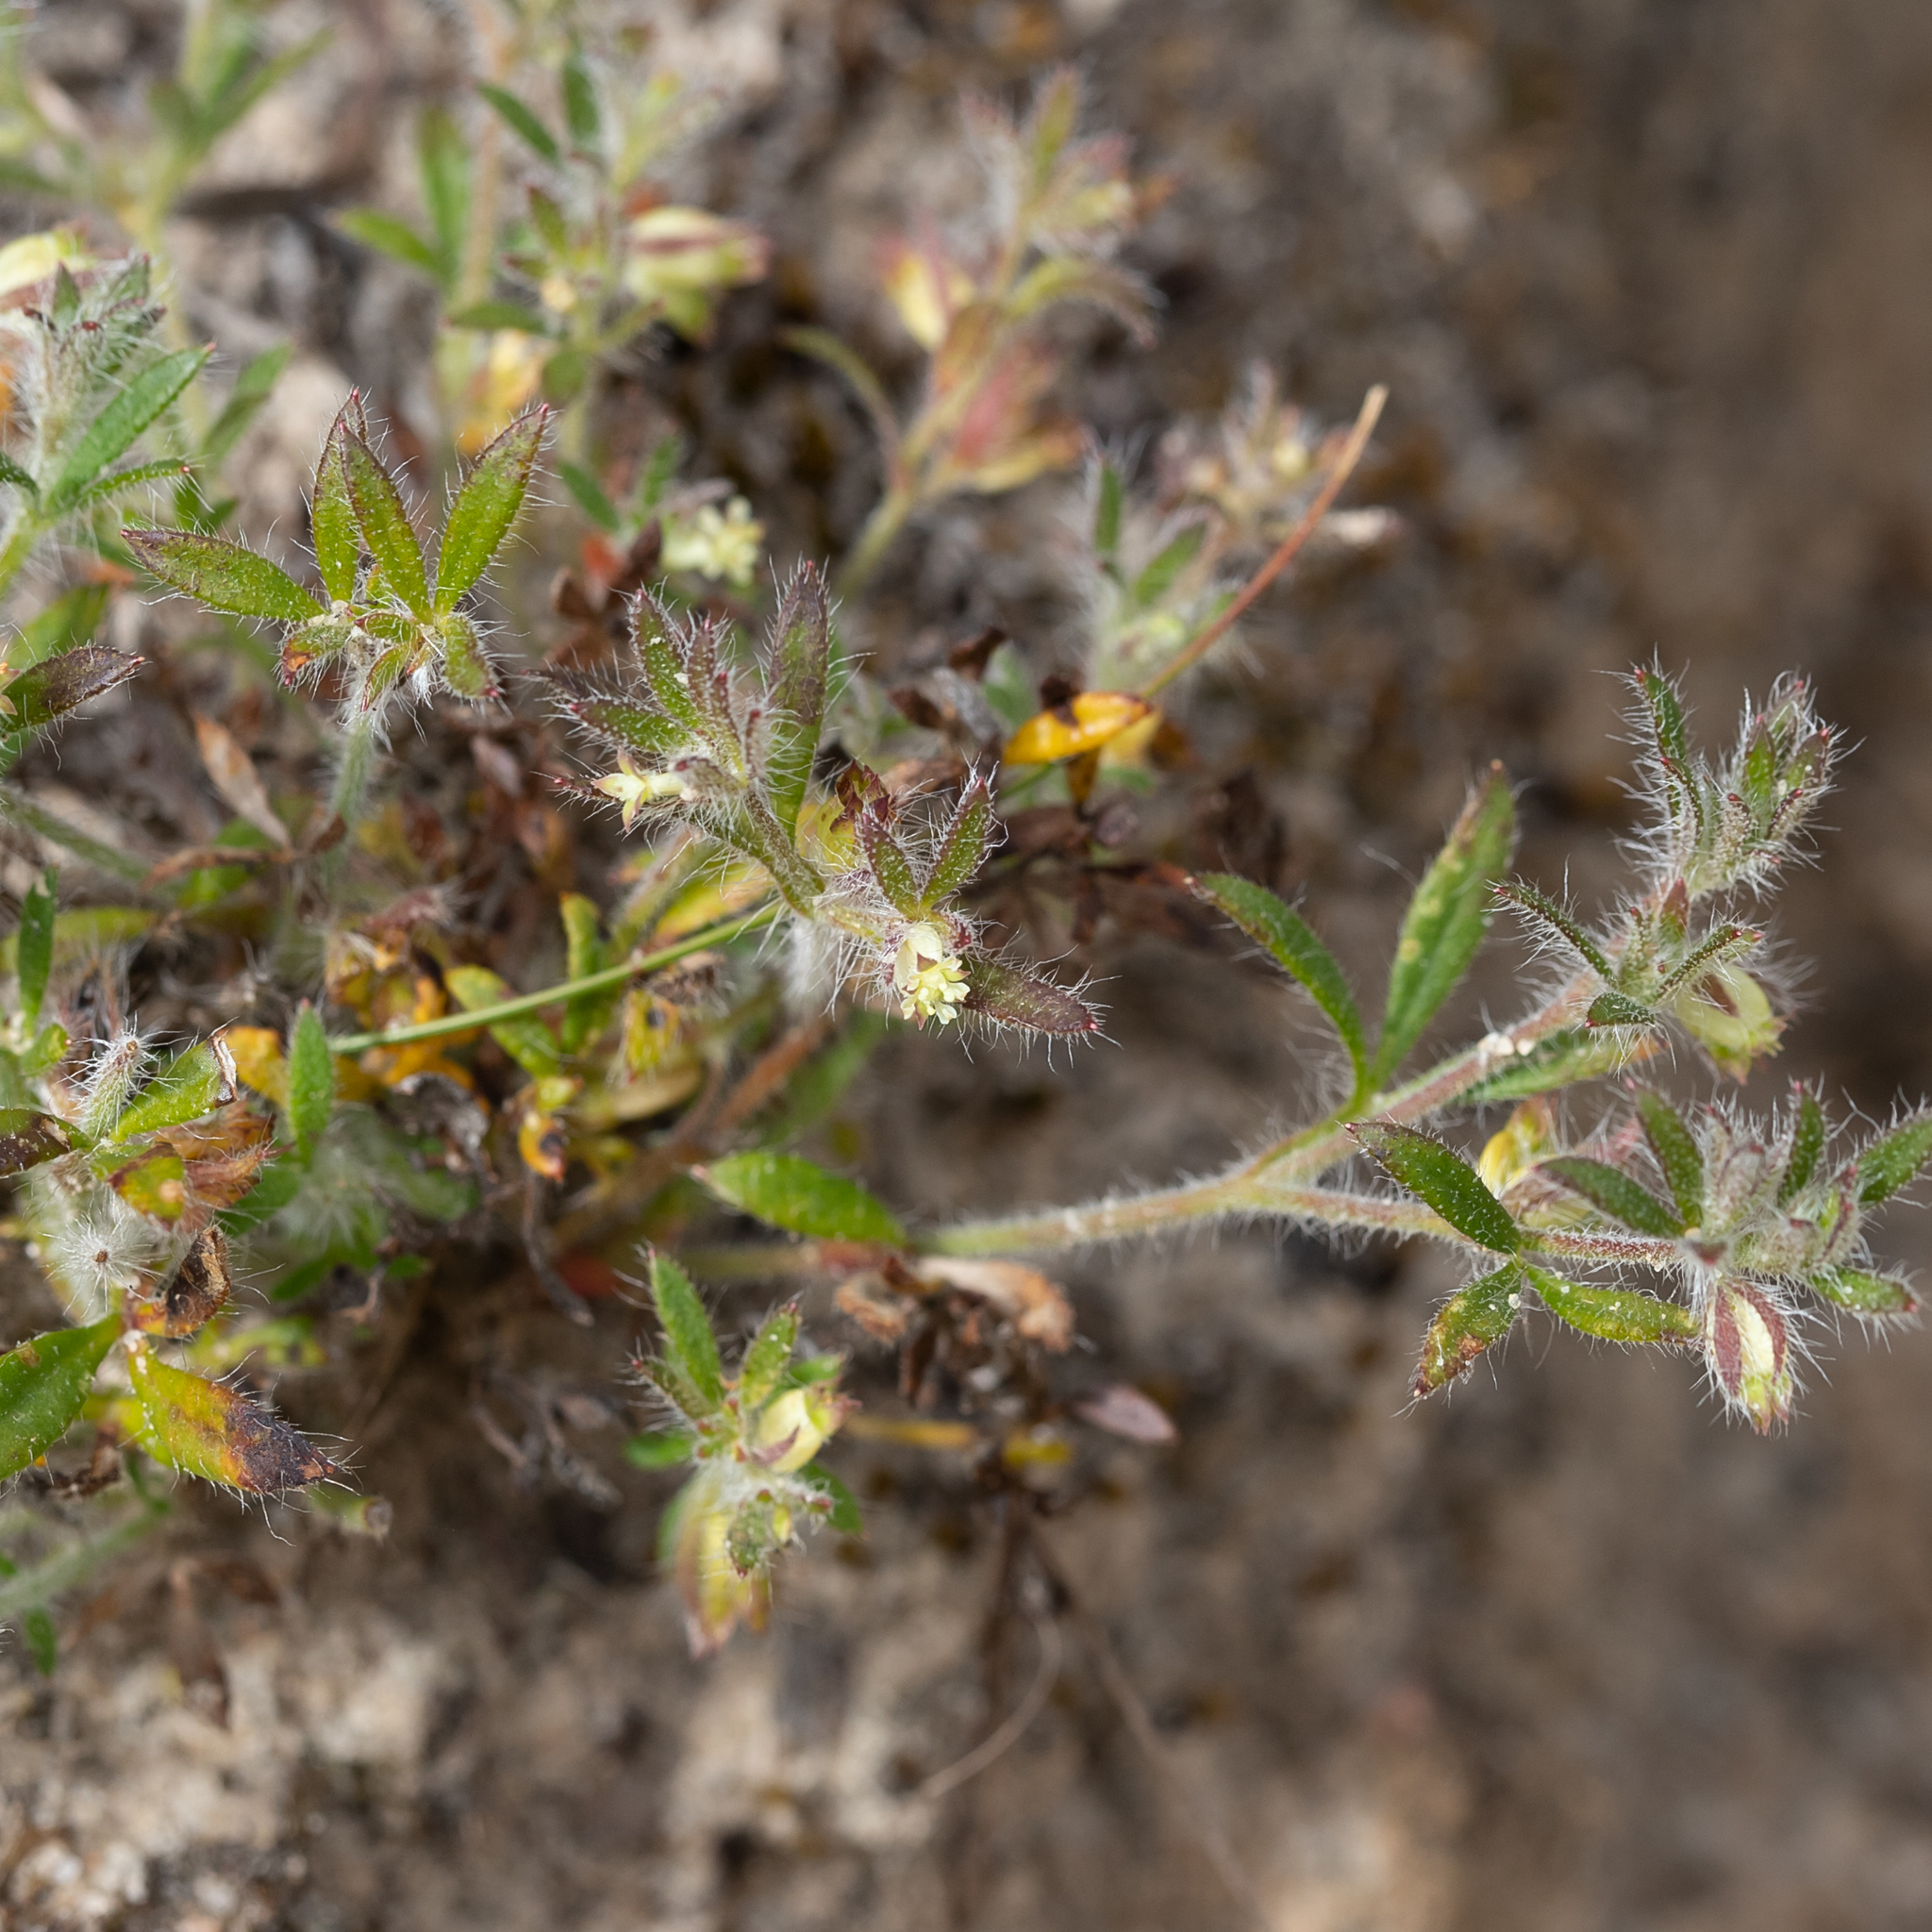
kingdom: Plantae
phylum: Tracheophyta
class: Magnoliopsida
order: Apiales
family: Apiaceae
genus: Xanthosia
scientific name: Xanthosia huegelii
